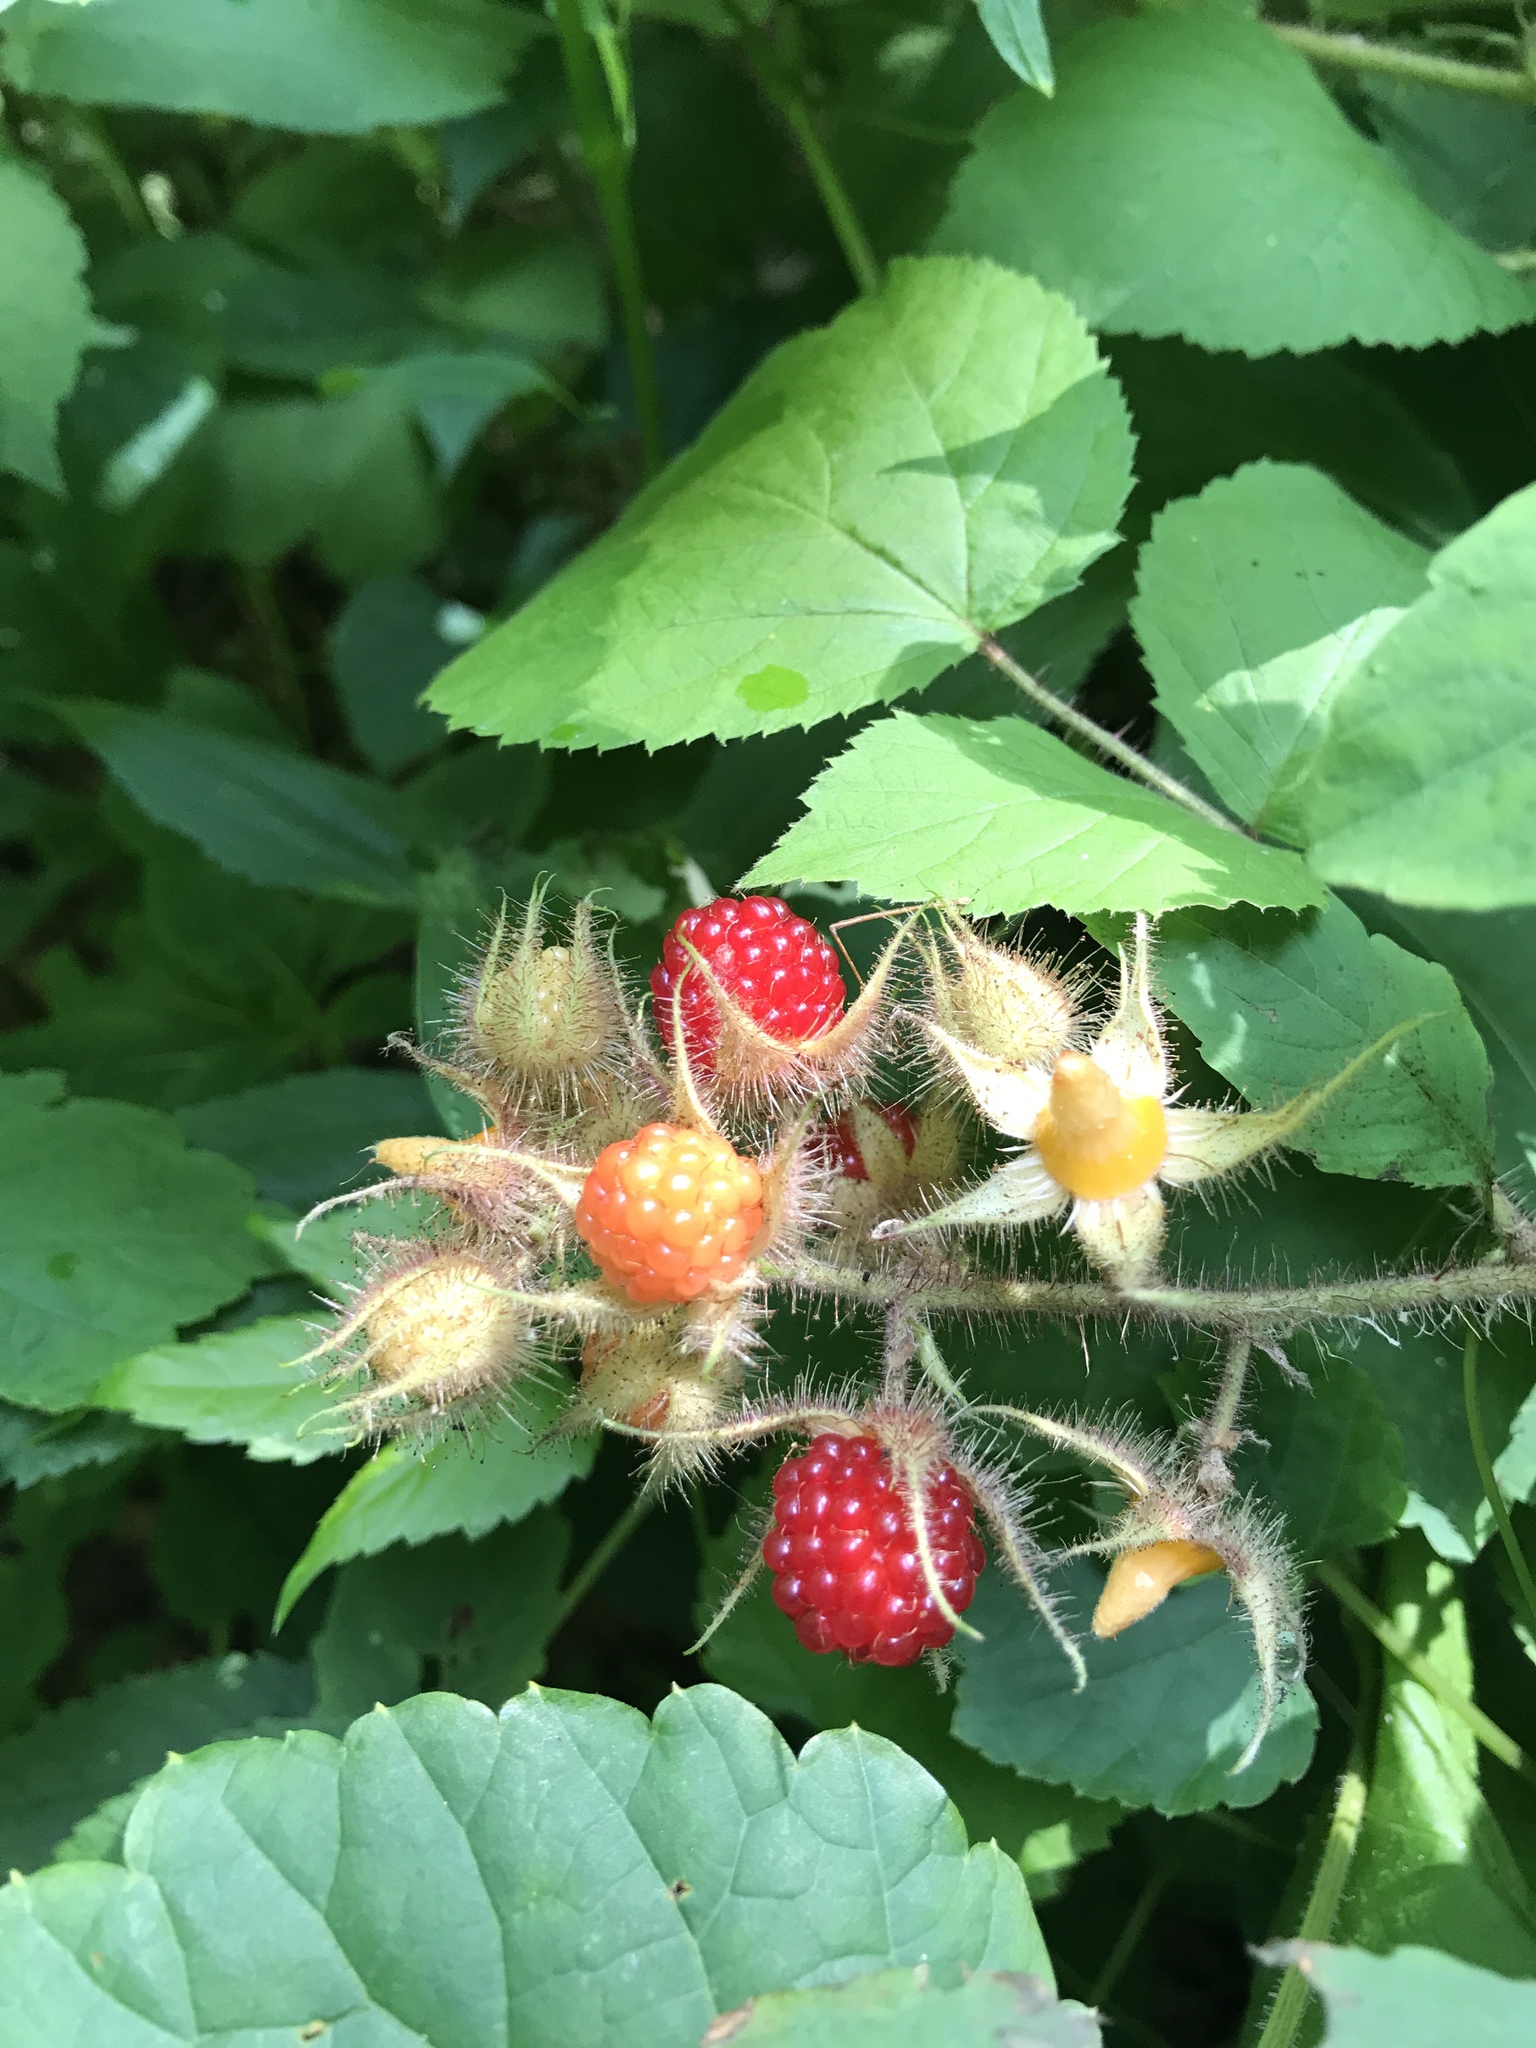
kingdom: Plantae
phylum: Tracheophyta
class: Magnoliopsida
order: Rosales
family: Rosaceae
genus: Rubus
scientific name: Rubus phoenicolasius
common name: Japanese wineberry
